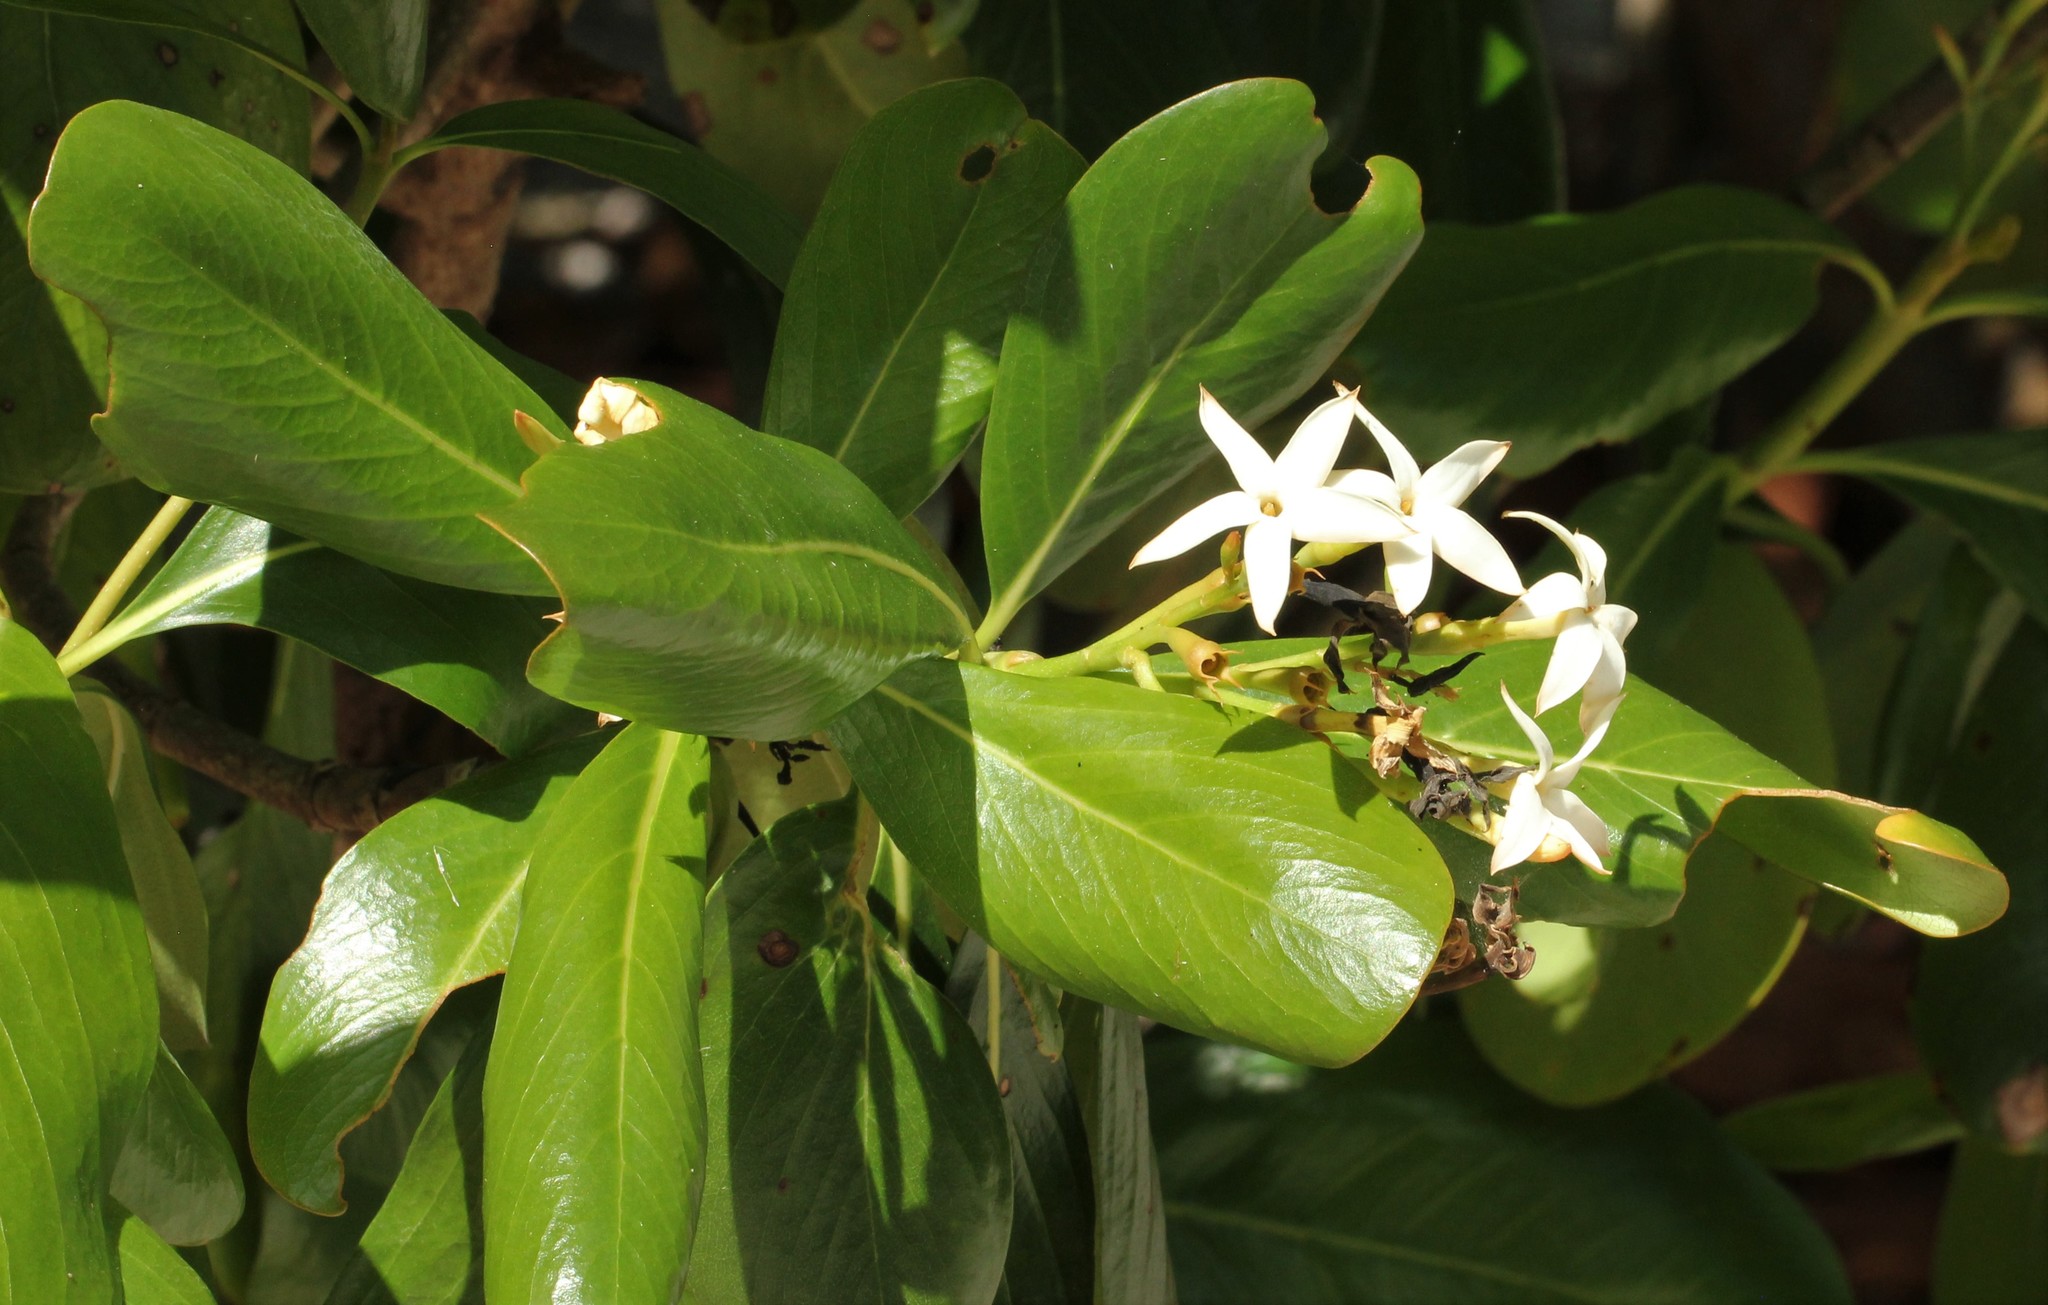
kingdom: Plantae
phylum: Tracheophyta
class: Magnoliopsida
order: Gentianales
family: Rubiaceae
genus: Casasia
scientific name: Casasia clusiifolia
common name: Seven-year apple
